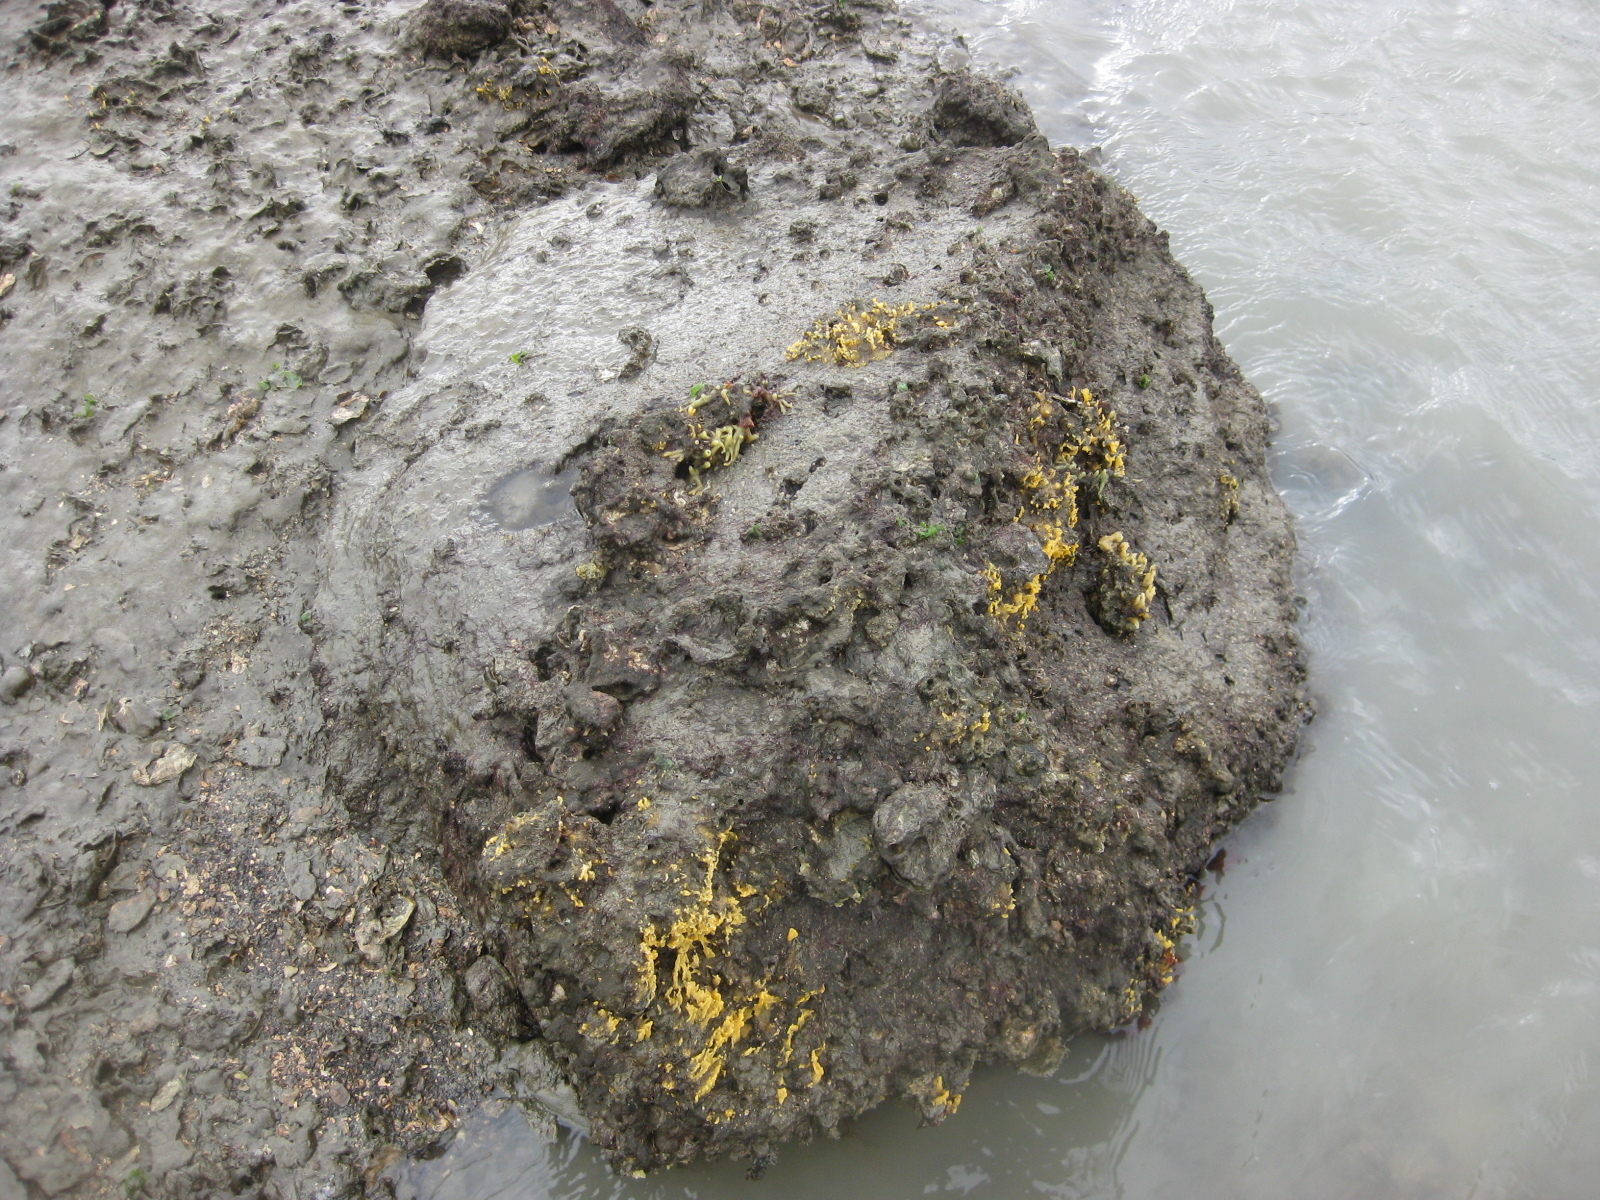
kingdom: Animalia
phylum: Porifera
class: Demospongiae
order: Suberitida
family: Halichondriidae
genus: Ciocalypta
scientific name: Ciocalypta polymastia
